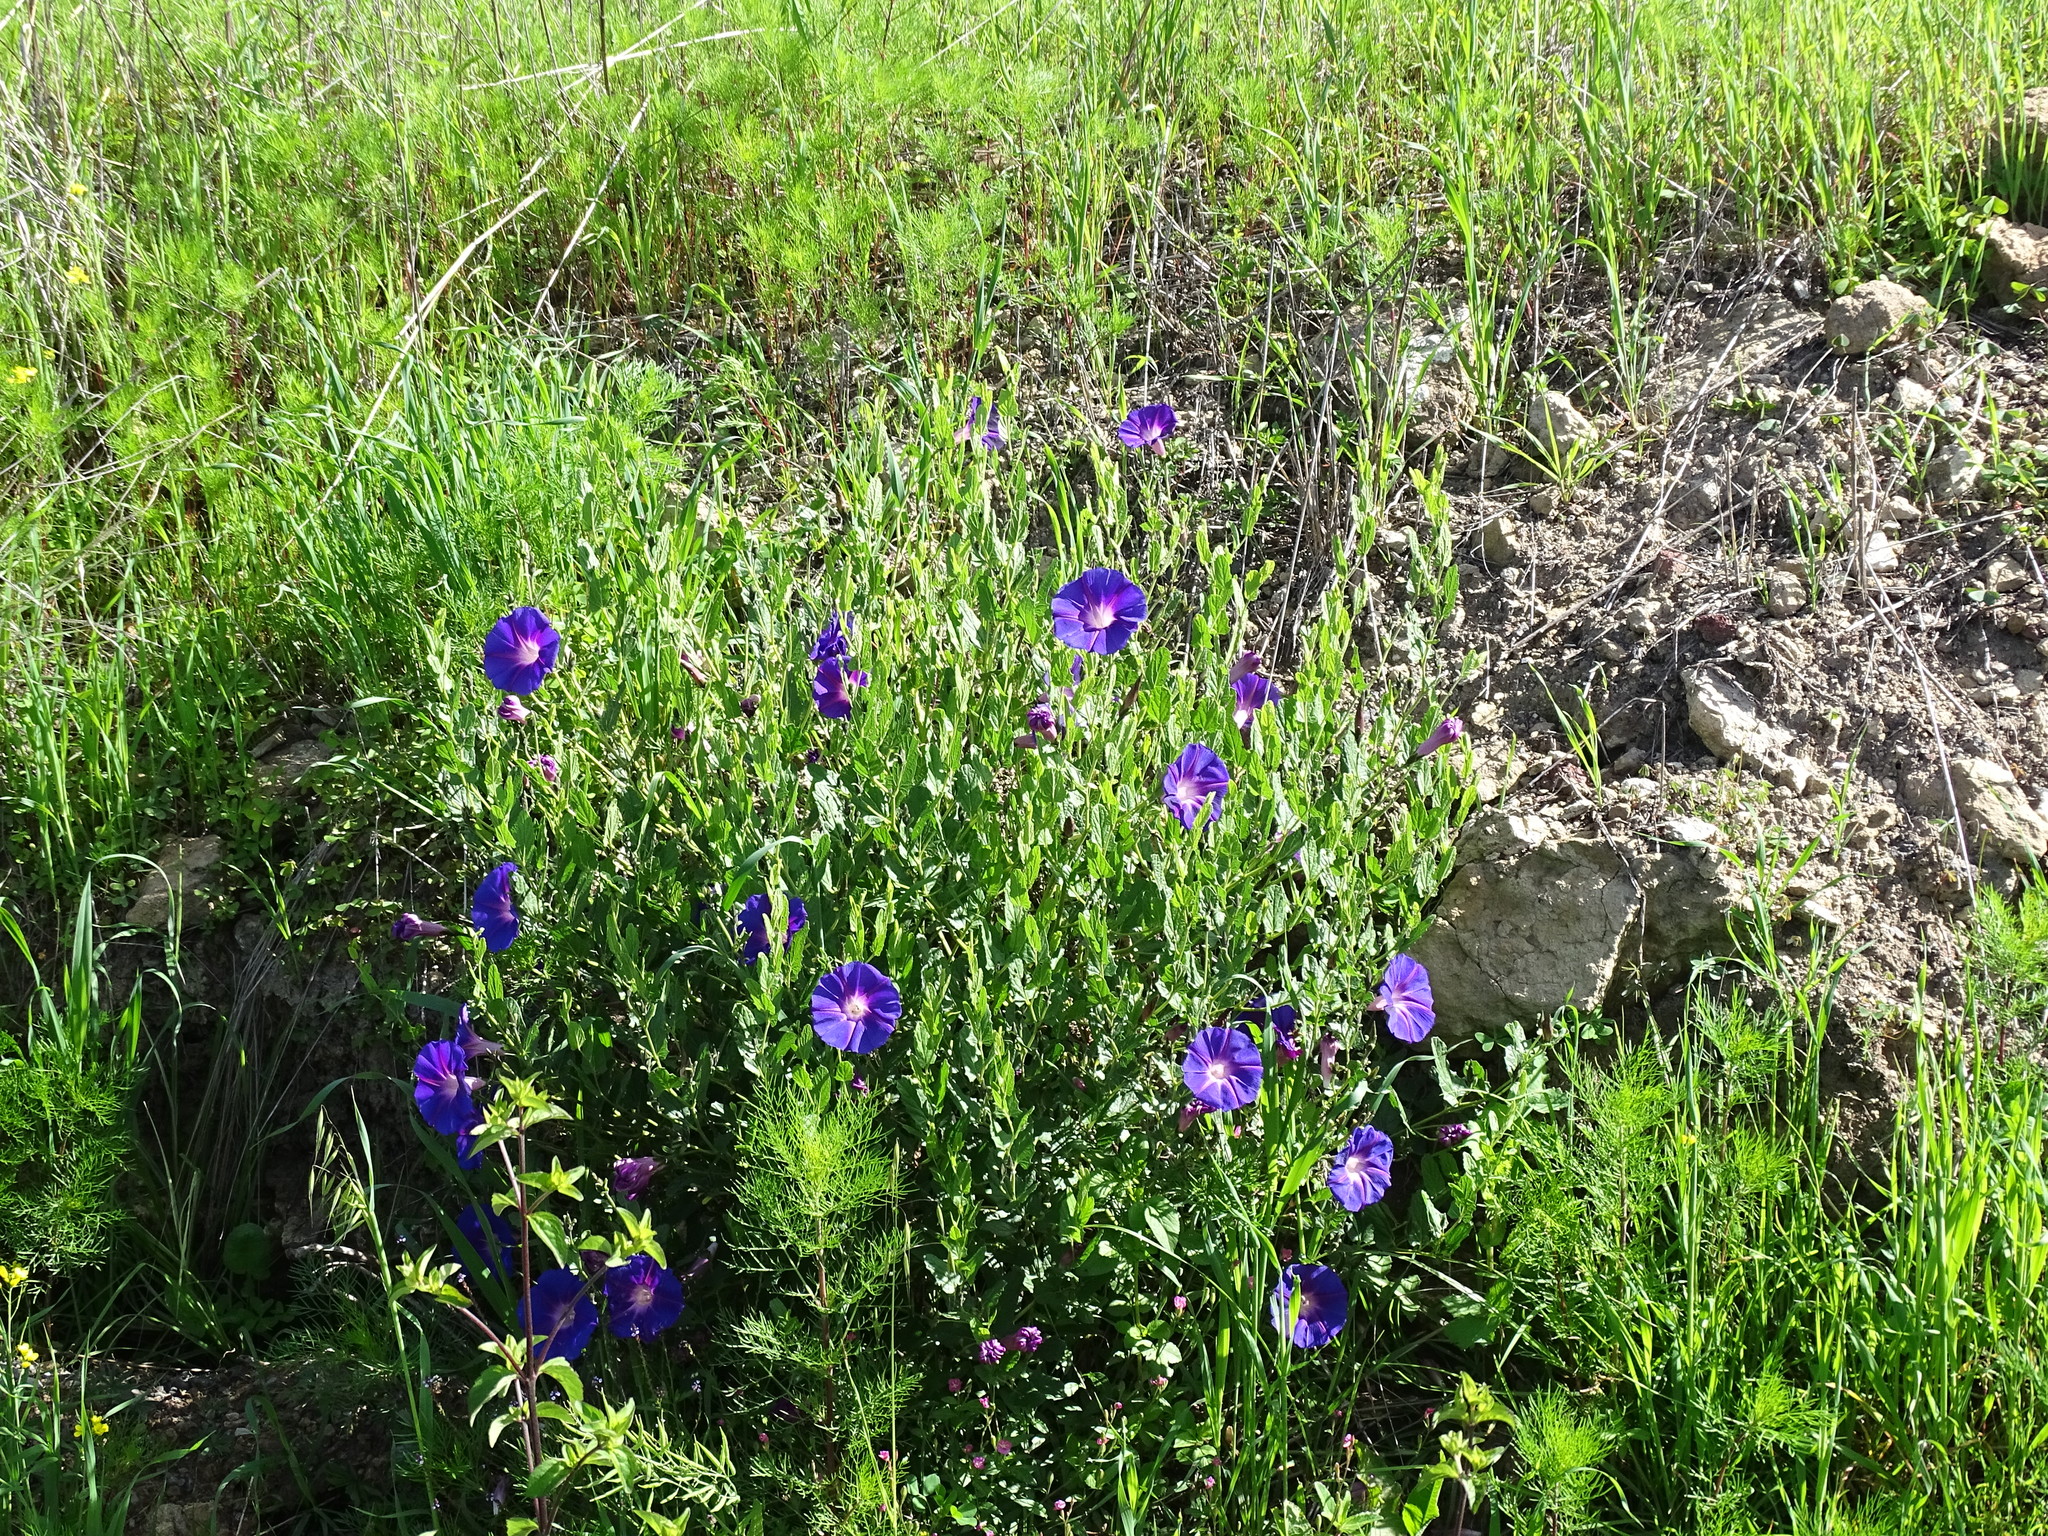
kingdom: Plantae
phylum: Tracheophyta
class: Magnoliopsida
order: Solanales
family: Convolvulaceae
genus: Ipomoea
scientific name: Ipomoea stans
